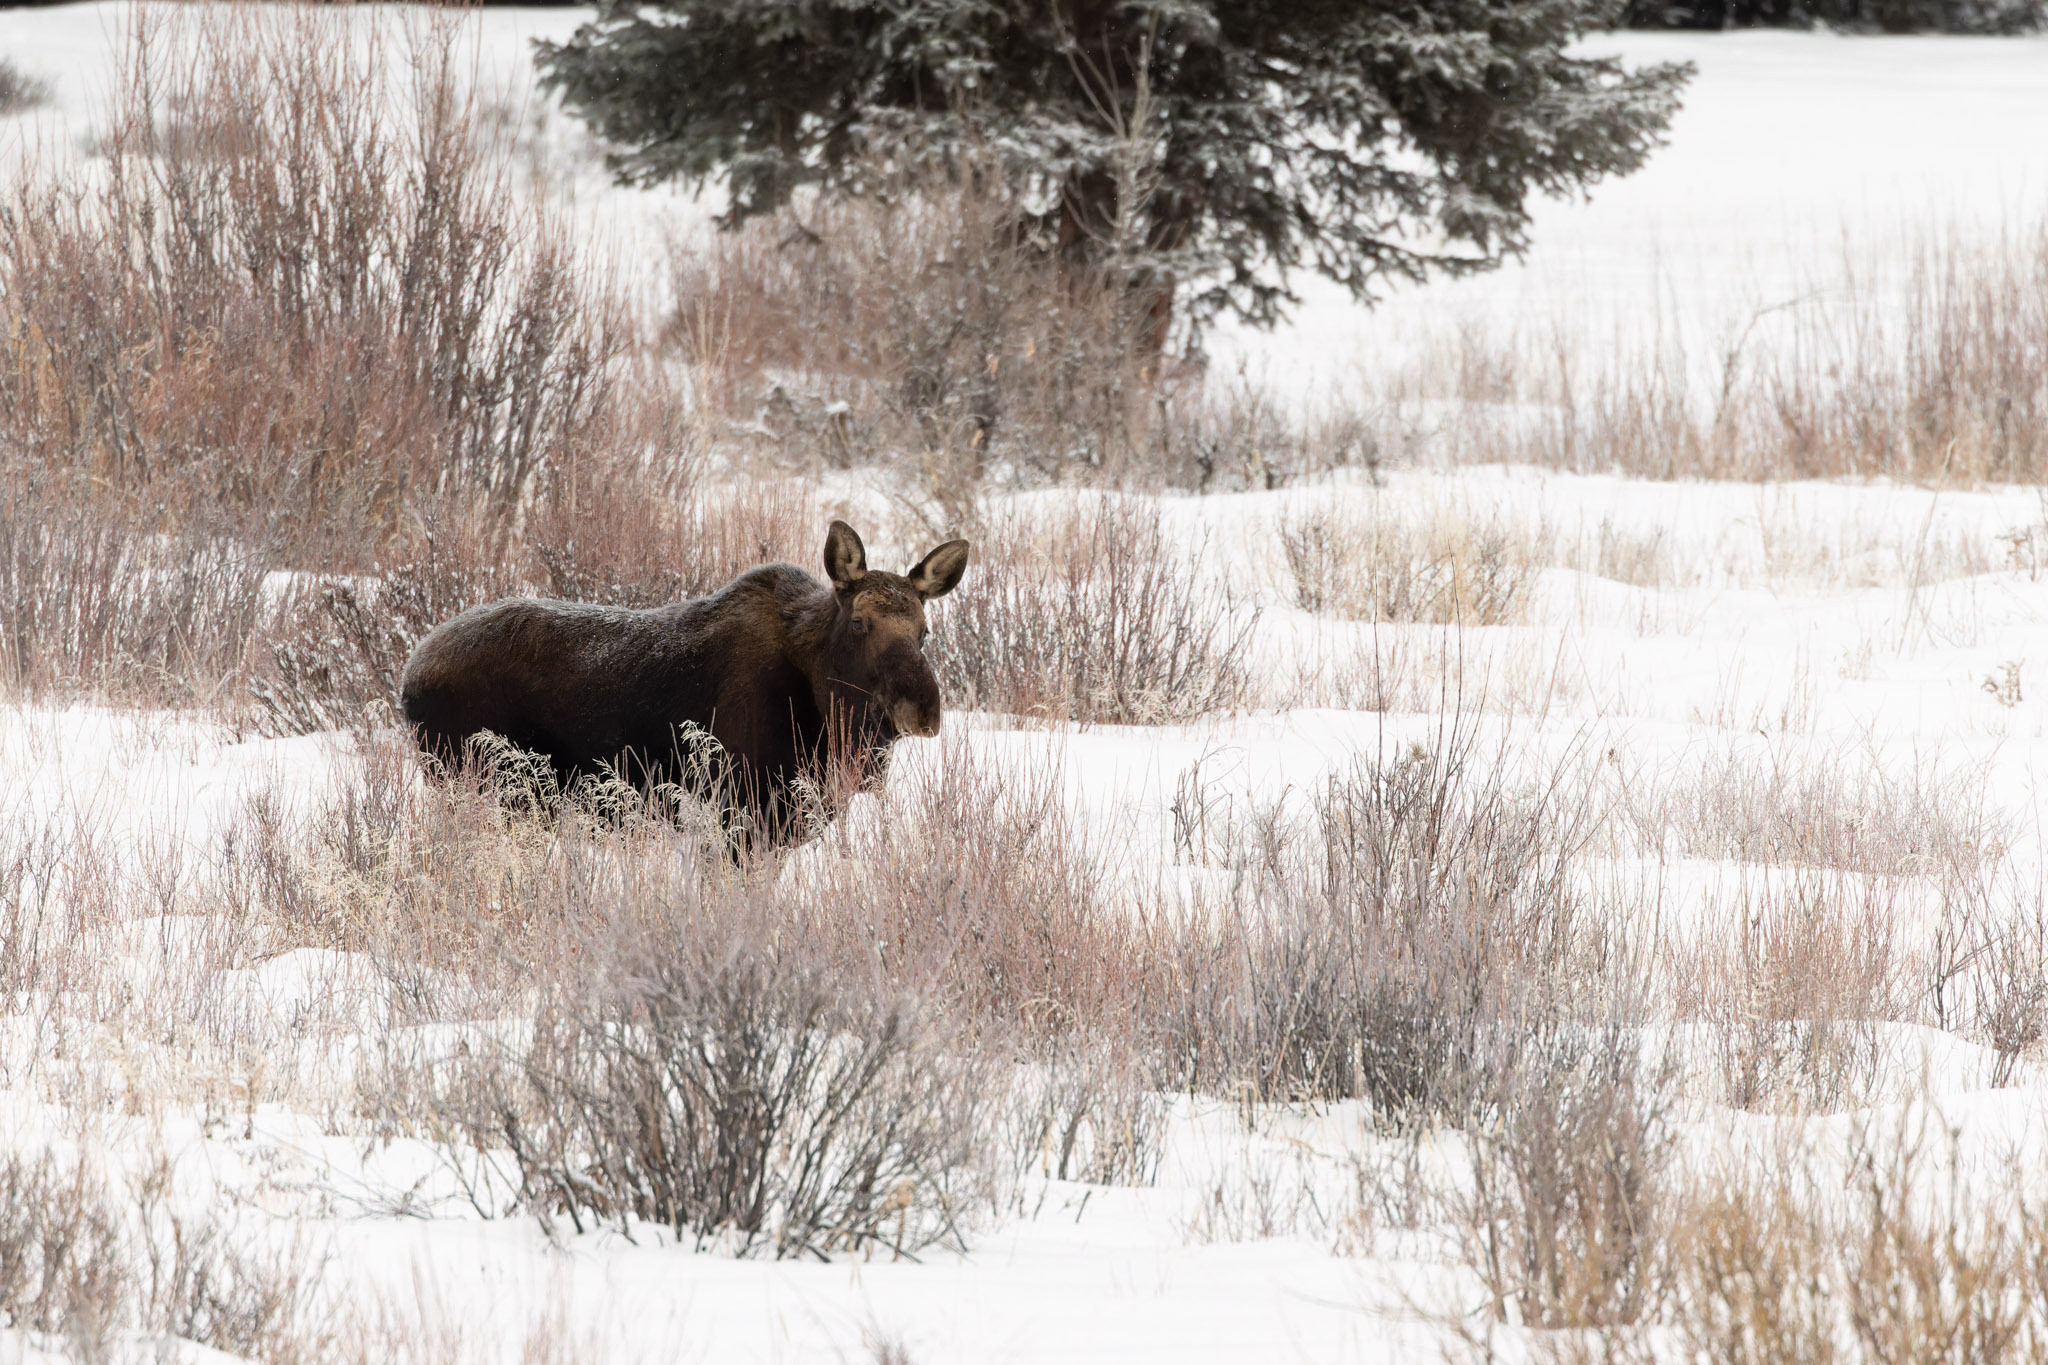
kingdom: Animalia
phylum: Chordata
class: Mammalia
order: Artiodactyla
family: Cervidae
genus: Alces
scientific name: Alces alces
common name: Moose
